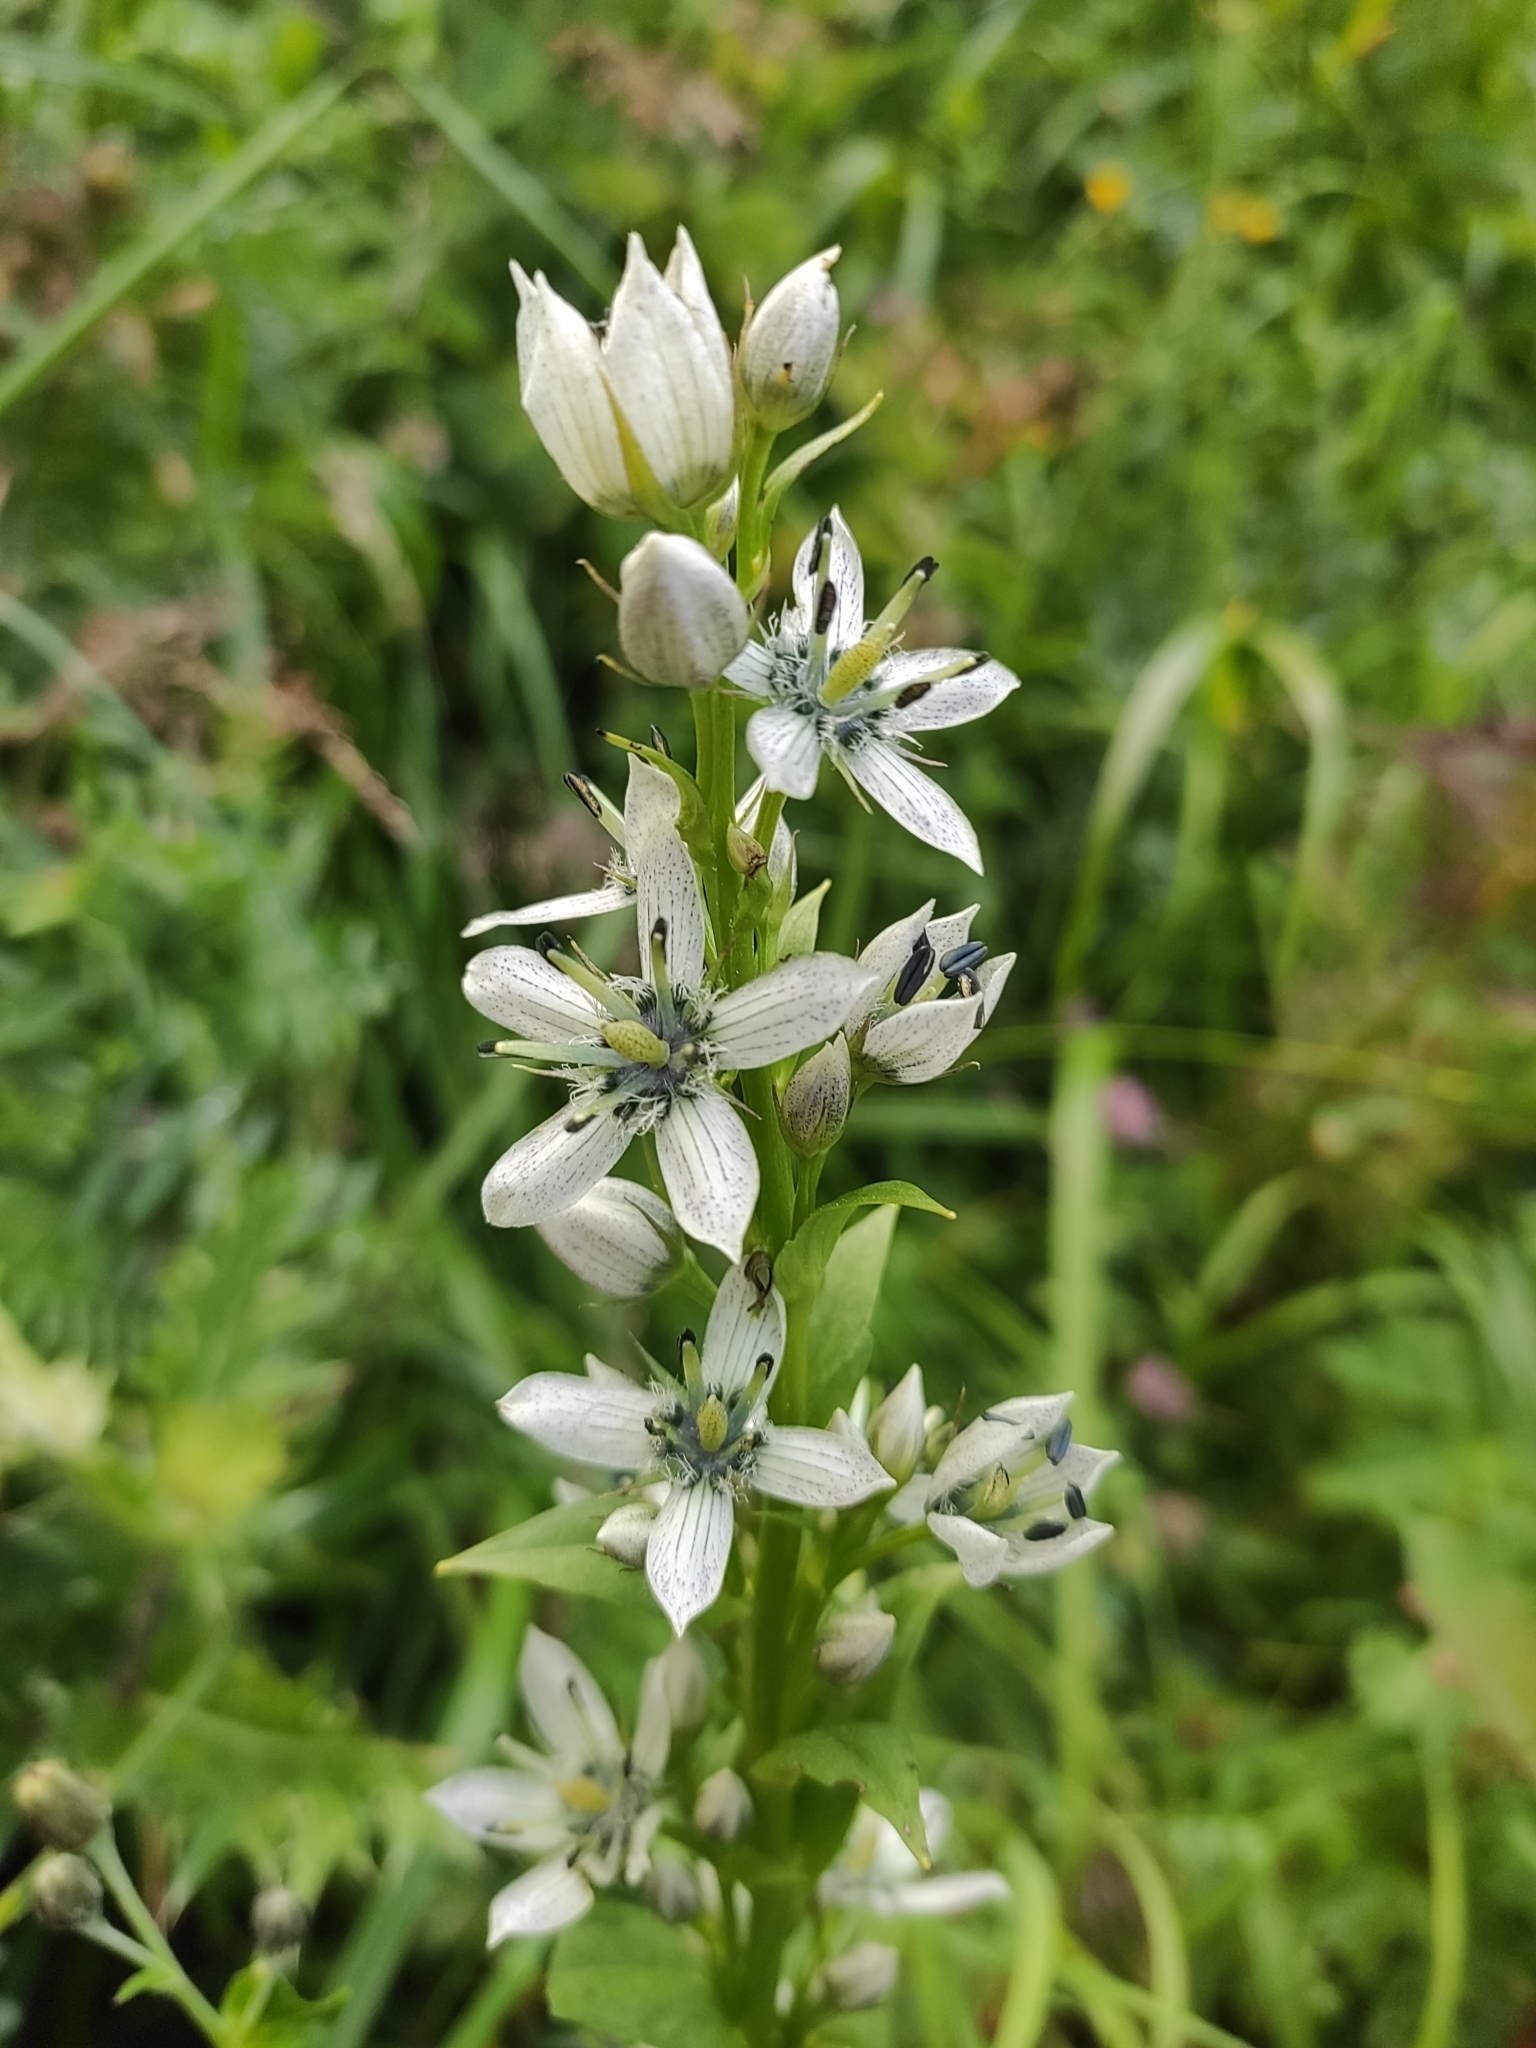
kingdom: Plantae
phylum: Tracheophyta
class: Magnoliopsida
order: Gentianales
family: Gentianaceae
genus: Swertia
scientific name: Swertia iberica
